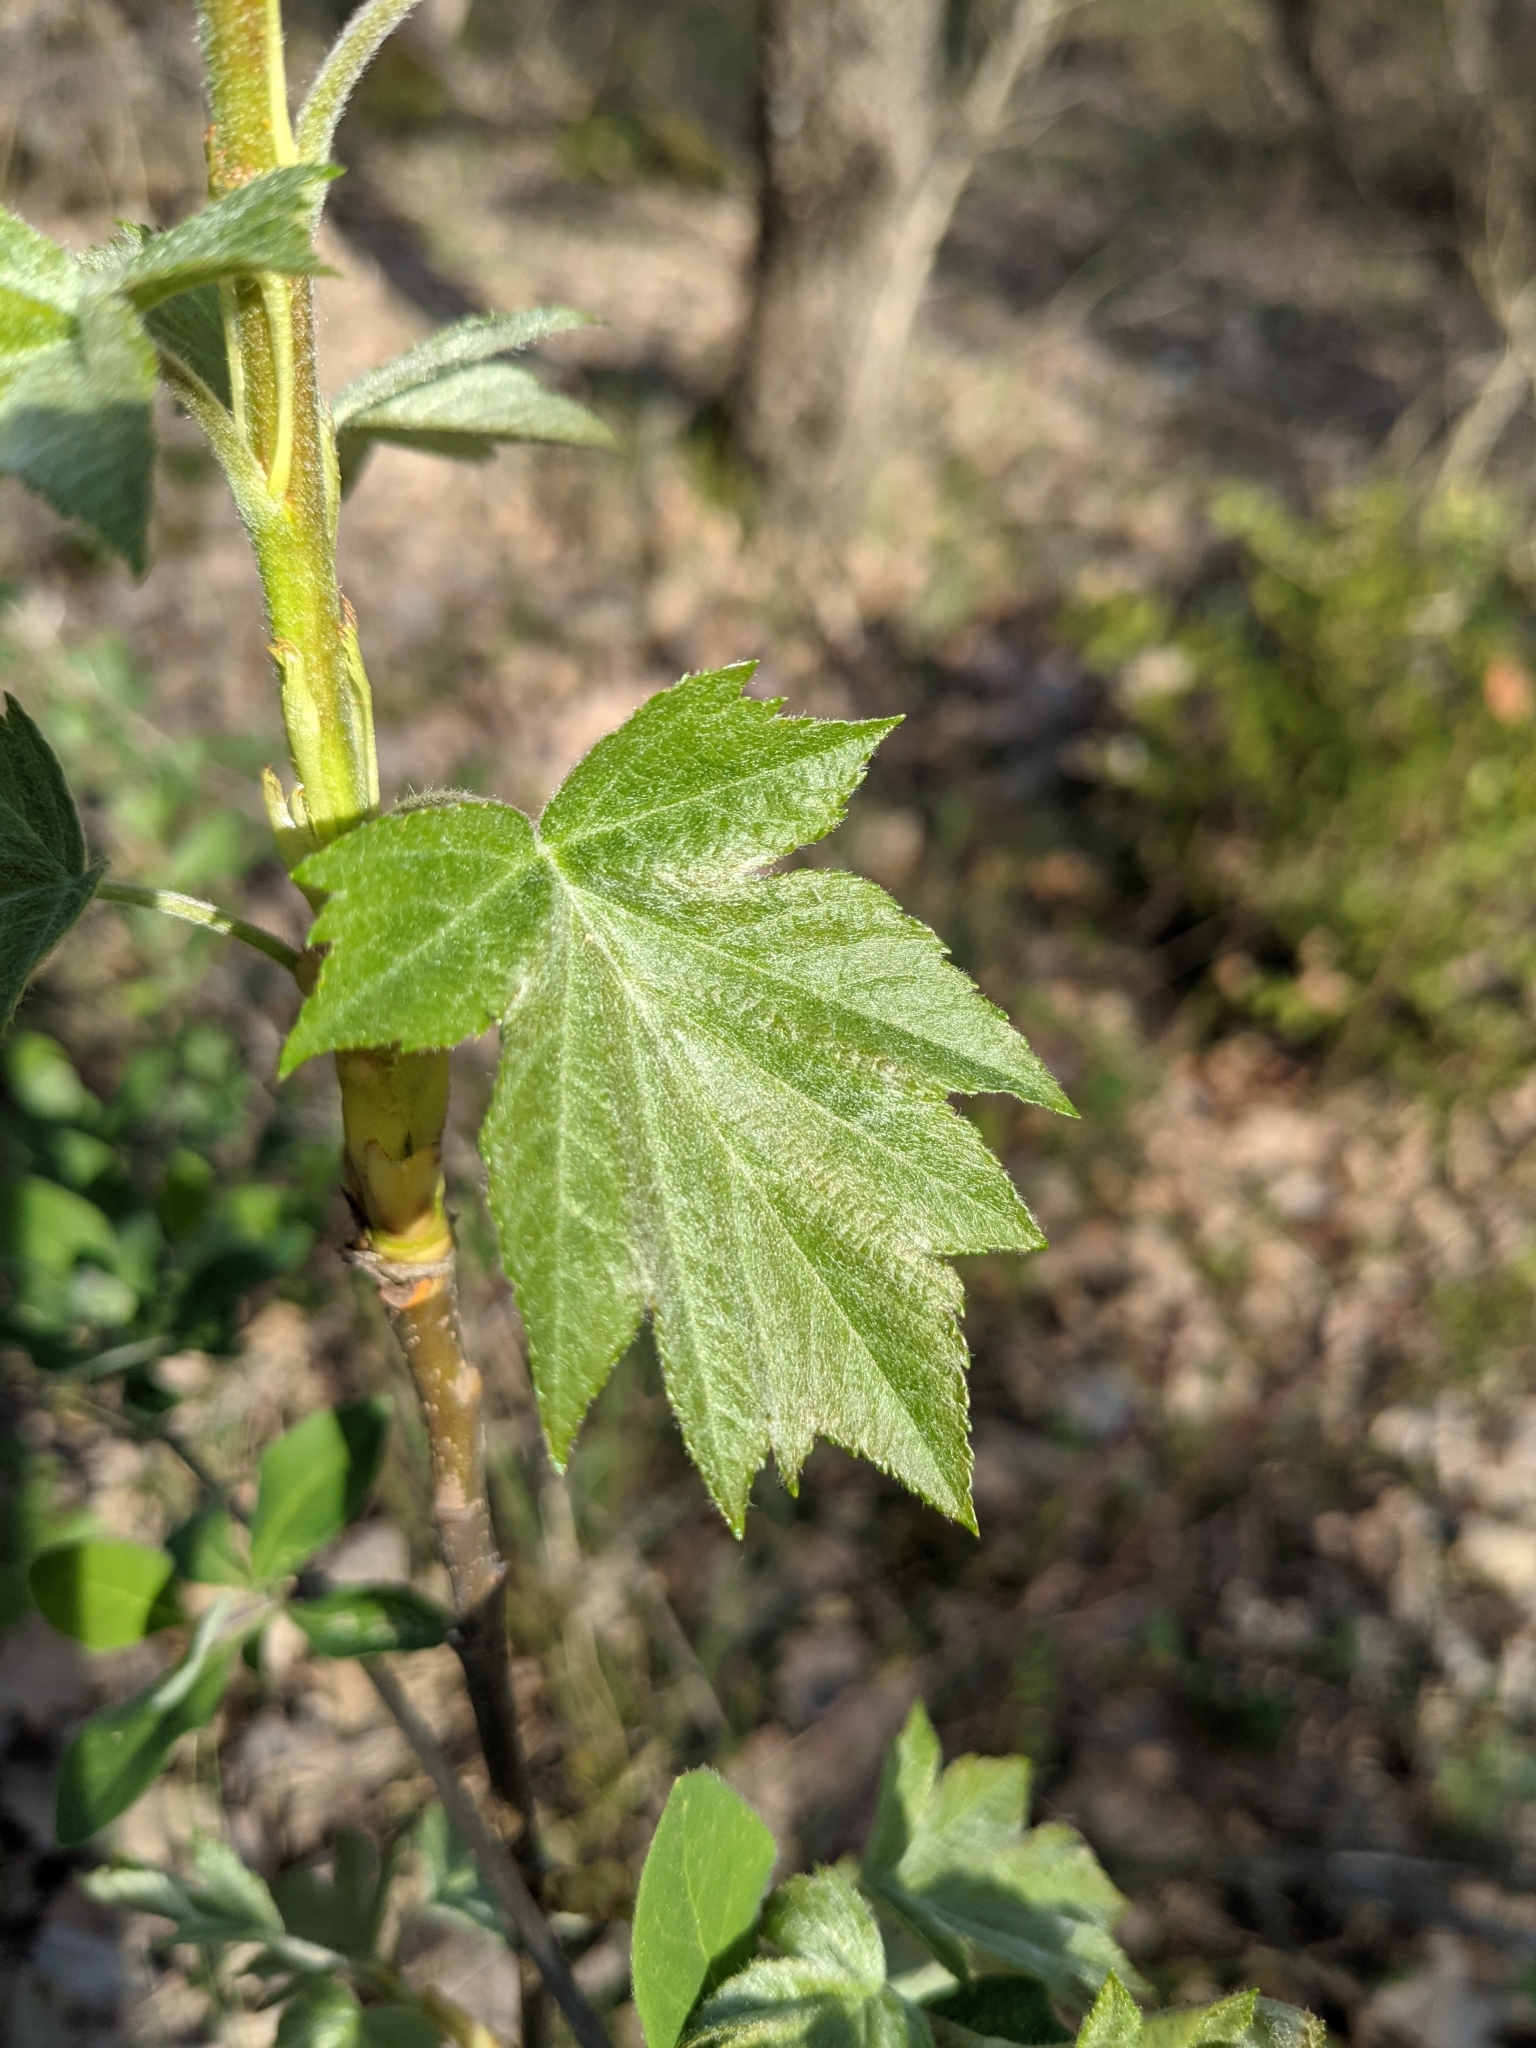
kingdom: Plantae
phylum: Tracheophyta
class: Magnoliopsida
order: Rosales
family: Rosaceae
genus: Torminalis
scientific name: Torminalis glaberrima
